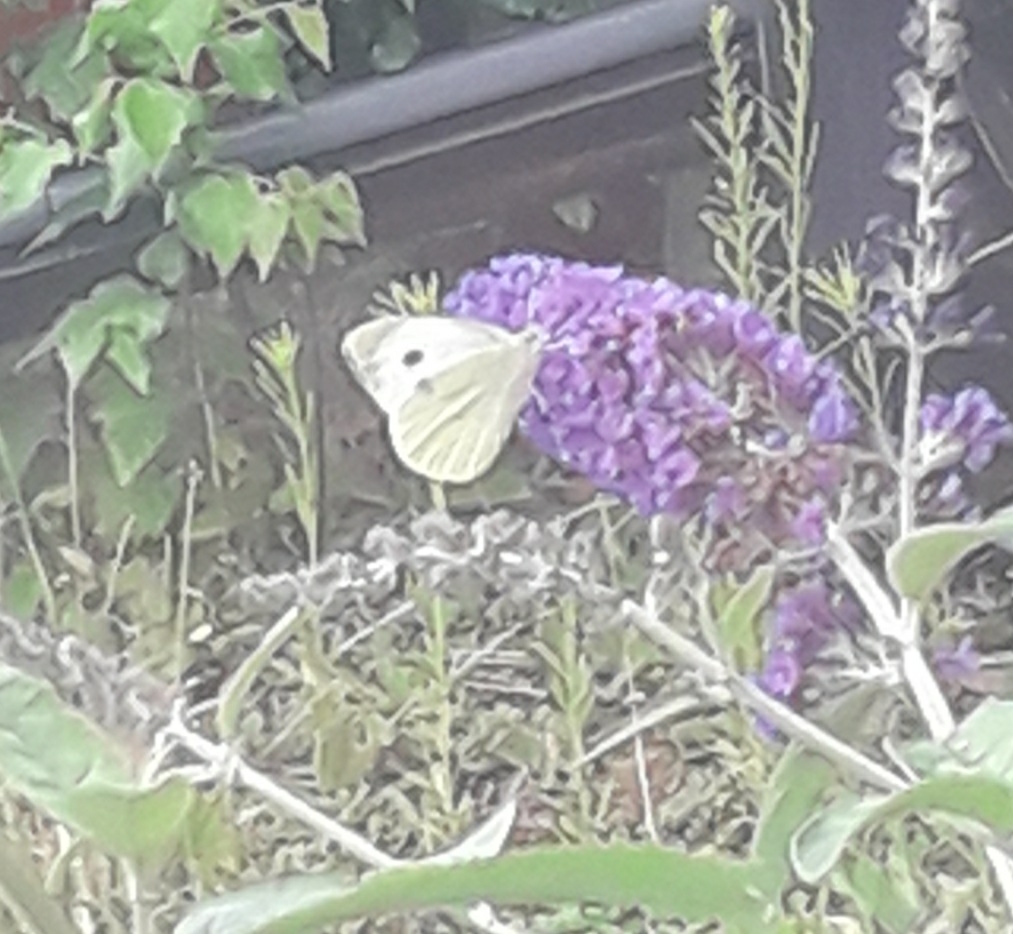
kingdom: Animalia
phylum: Arthropoda
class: Insecta
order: Lepidoptera
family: Pieridae
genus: Pieris
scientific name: Pieris brassicae
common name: Large white
